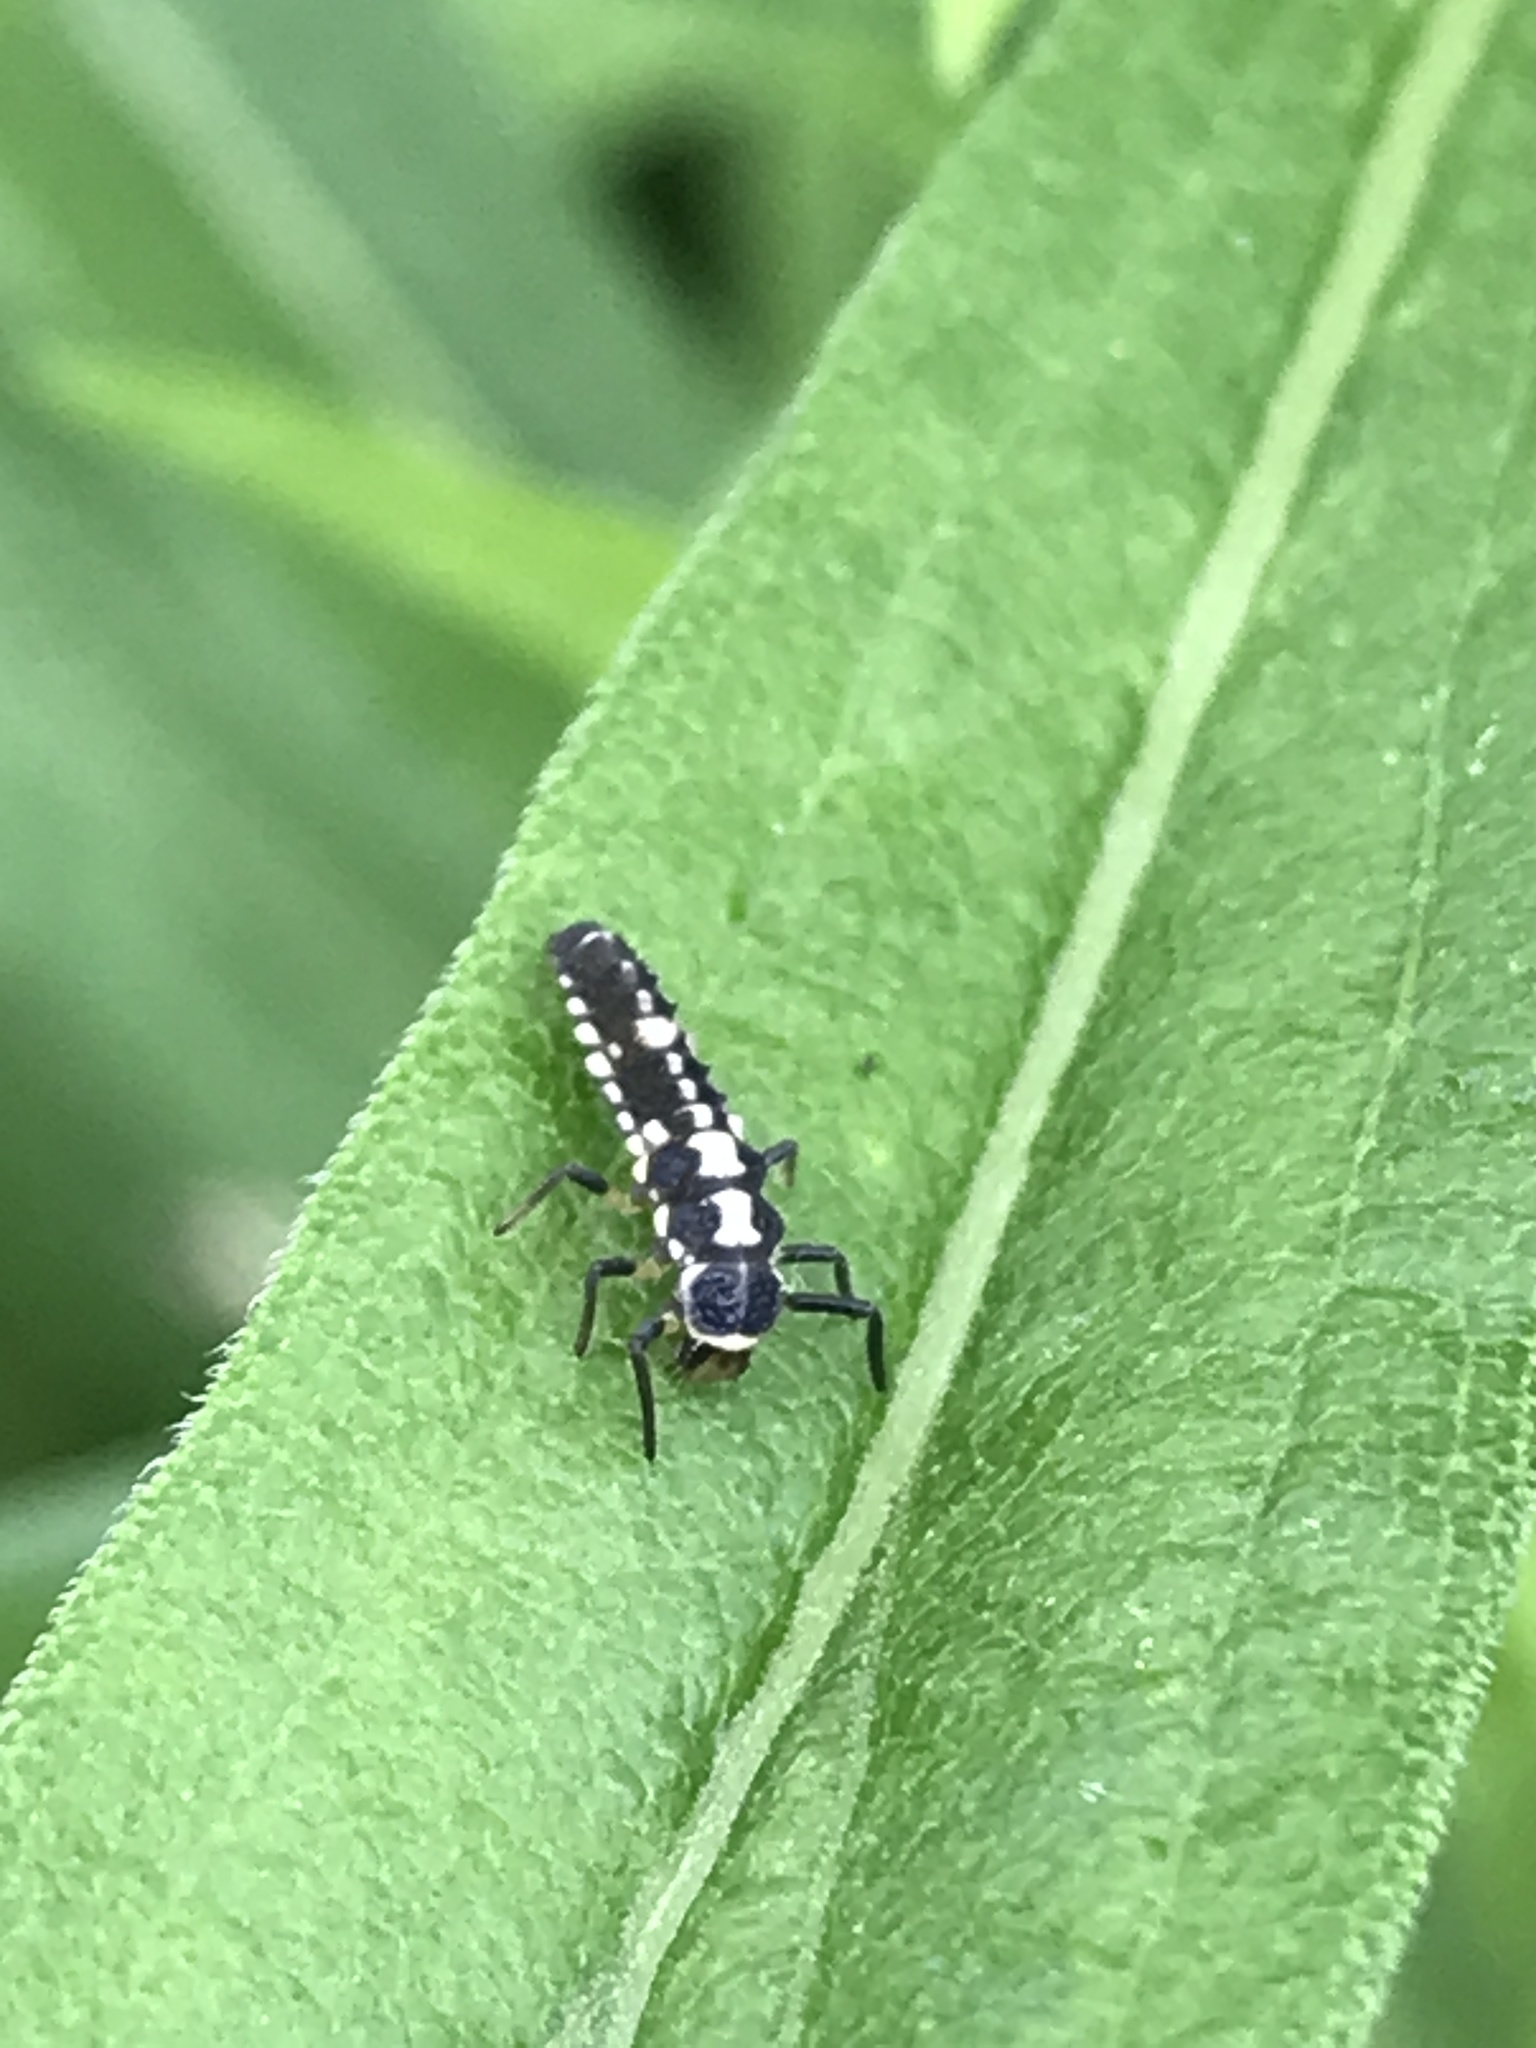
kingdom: Animalia
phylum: Arthropoda
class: Insecta
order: Coleoptera
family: Coccinellidae
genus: Propylaea
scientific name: Propylaea quatuordecimpunctata
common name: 14-spotted ladybird beetle
